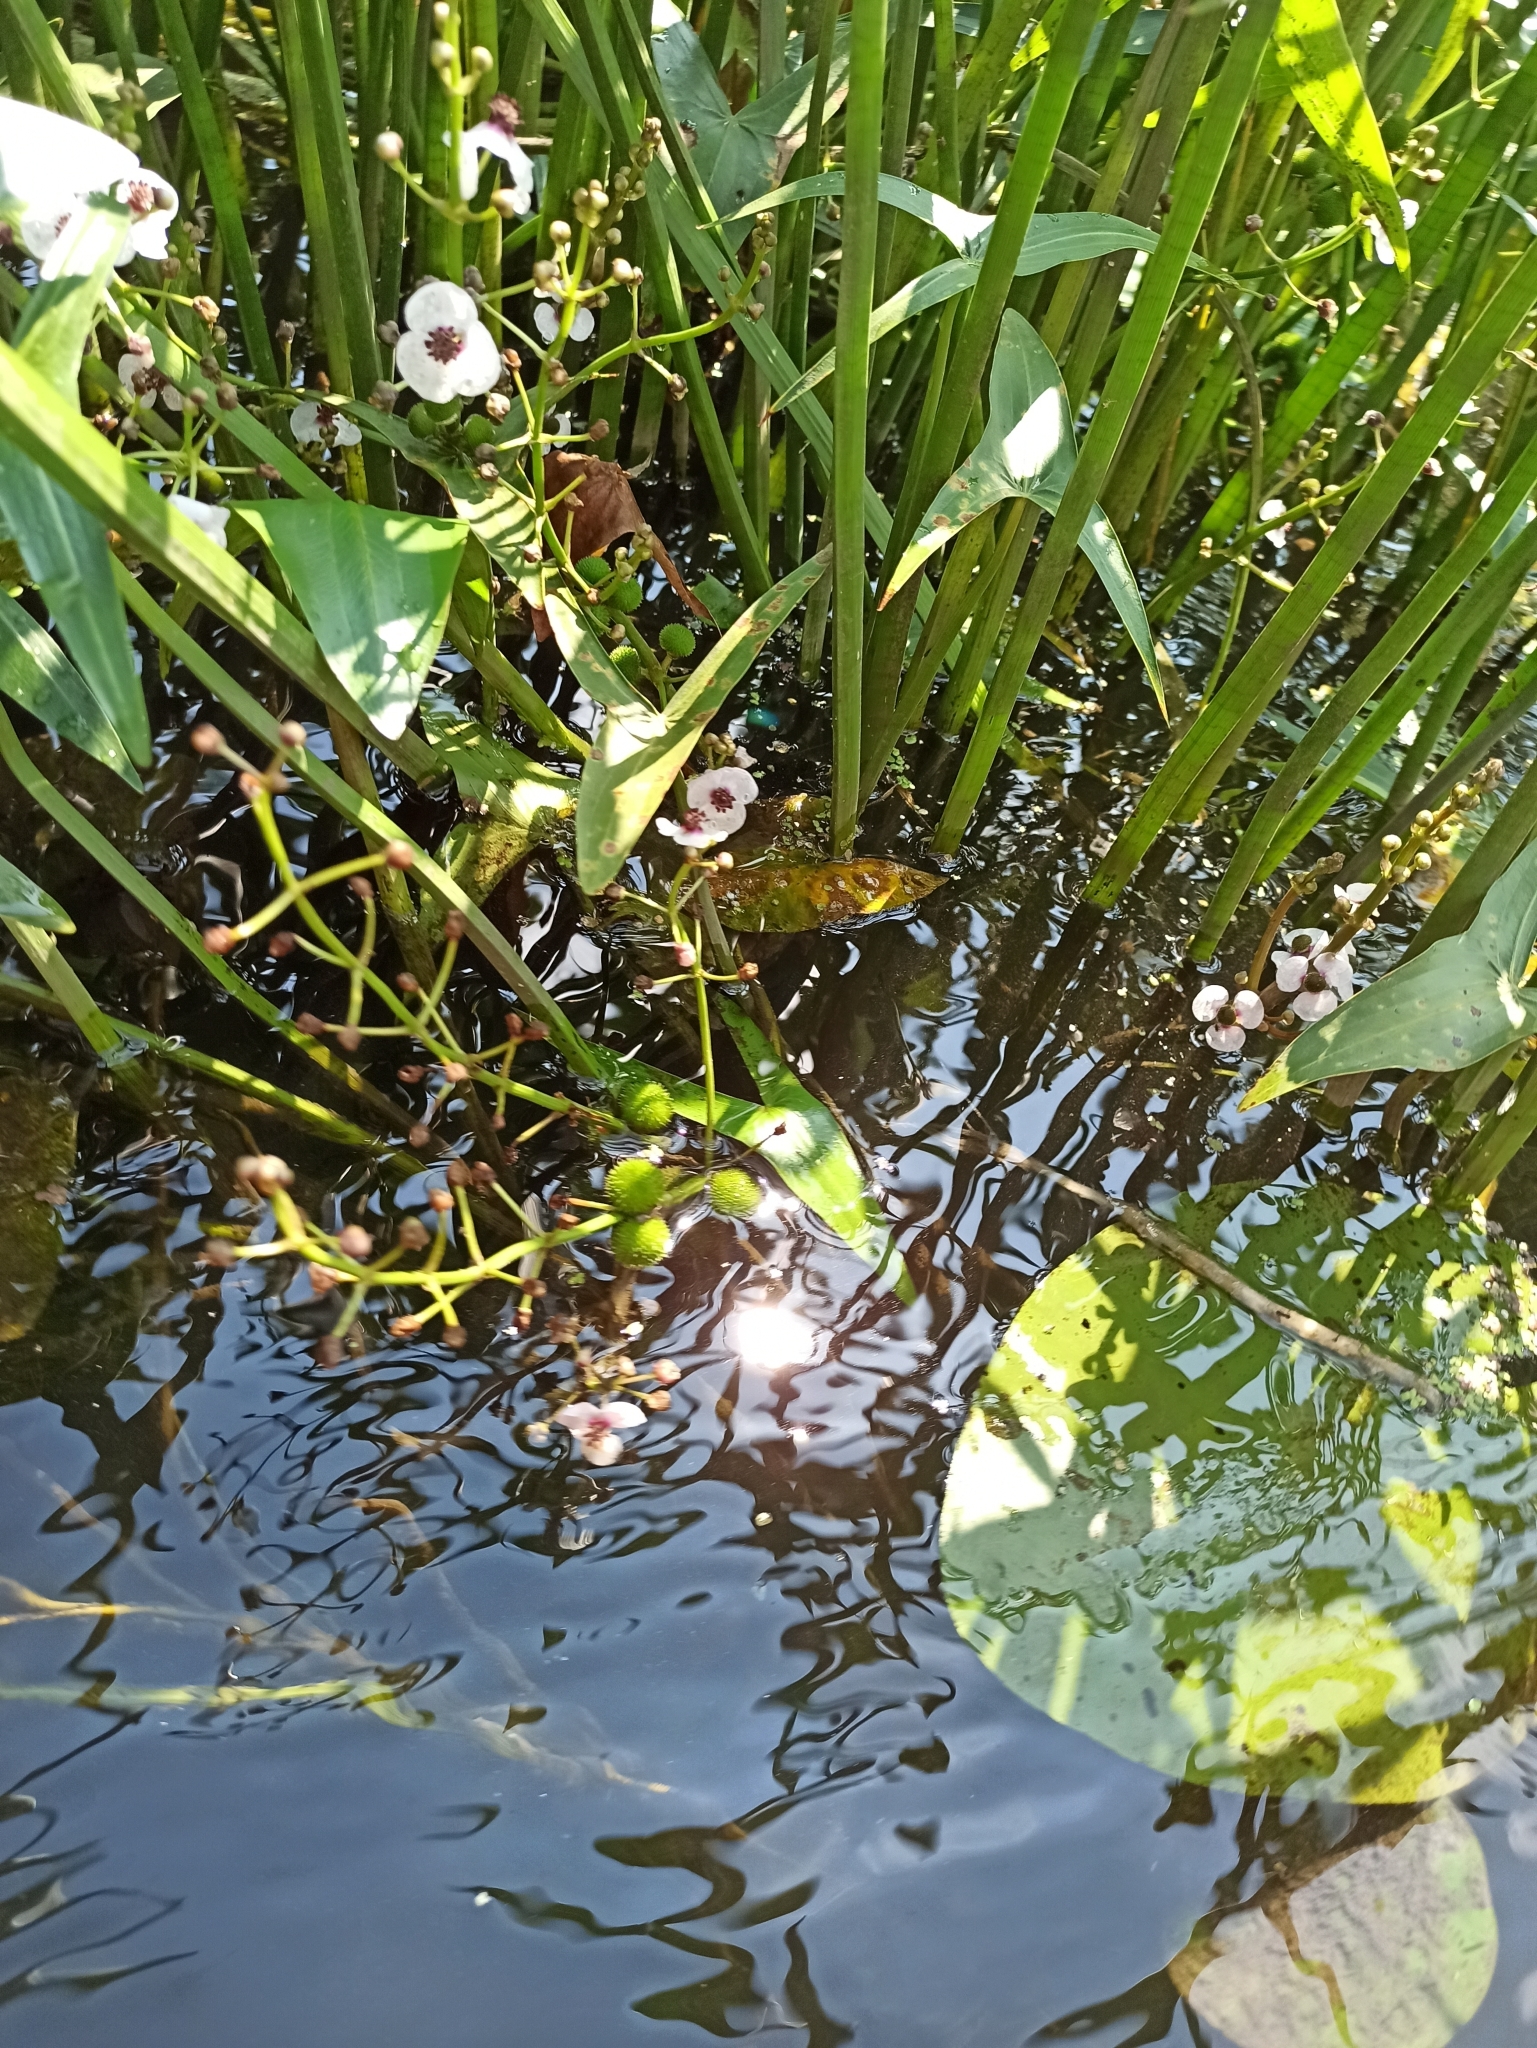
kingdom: Plantae
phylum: Tracheophyta
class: Liliopsida
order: Alismatales
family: Alismataceae
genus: Sagittaria
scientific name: Sagittaria sagittifolia
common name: Arrowhead
